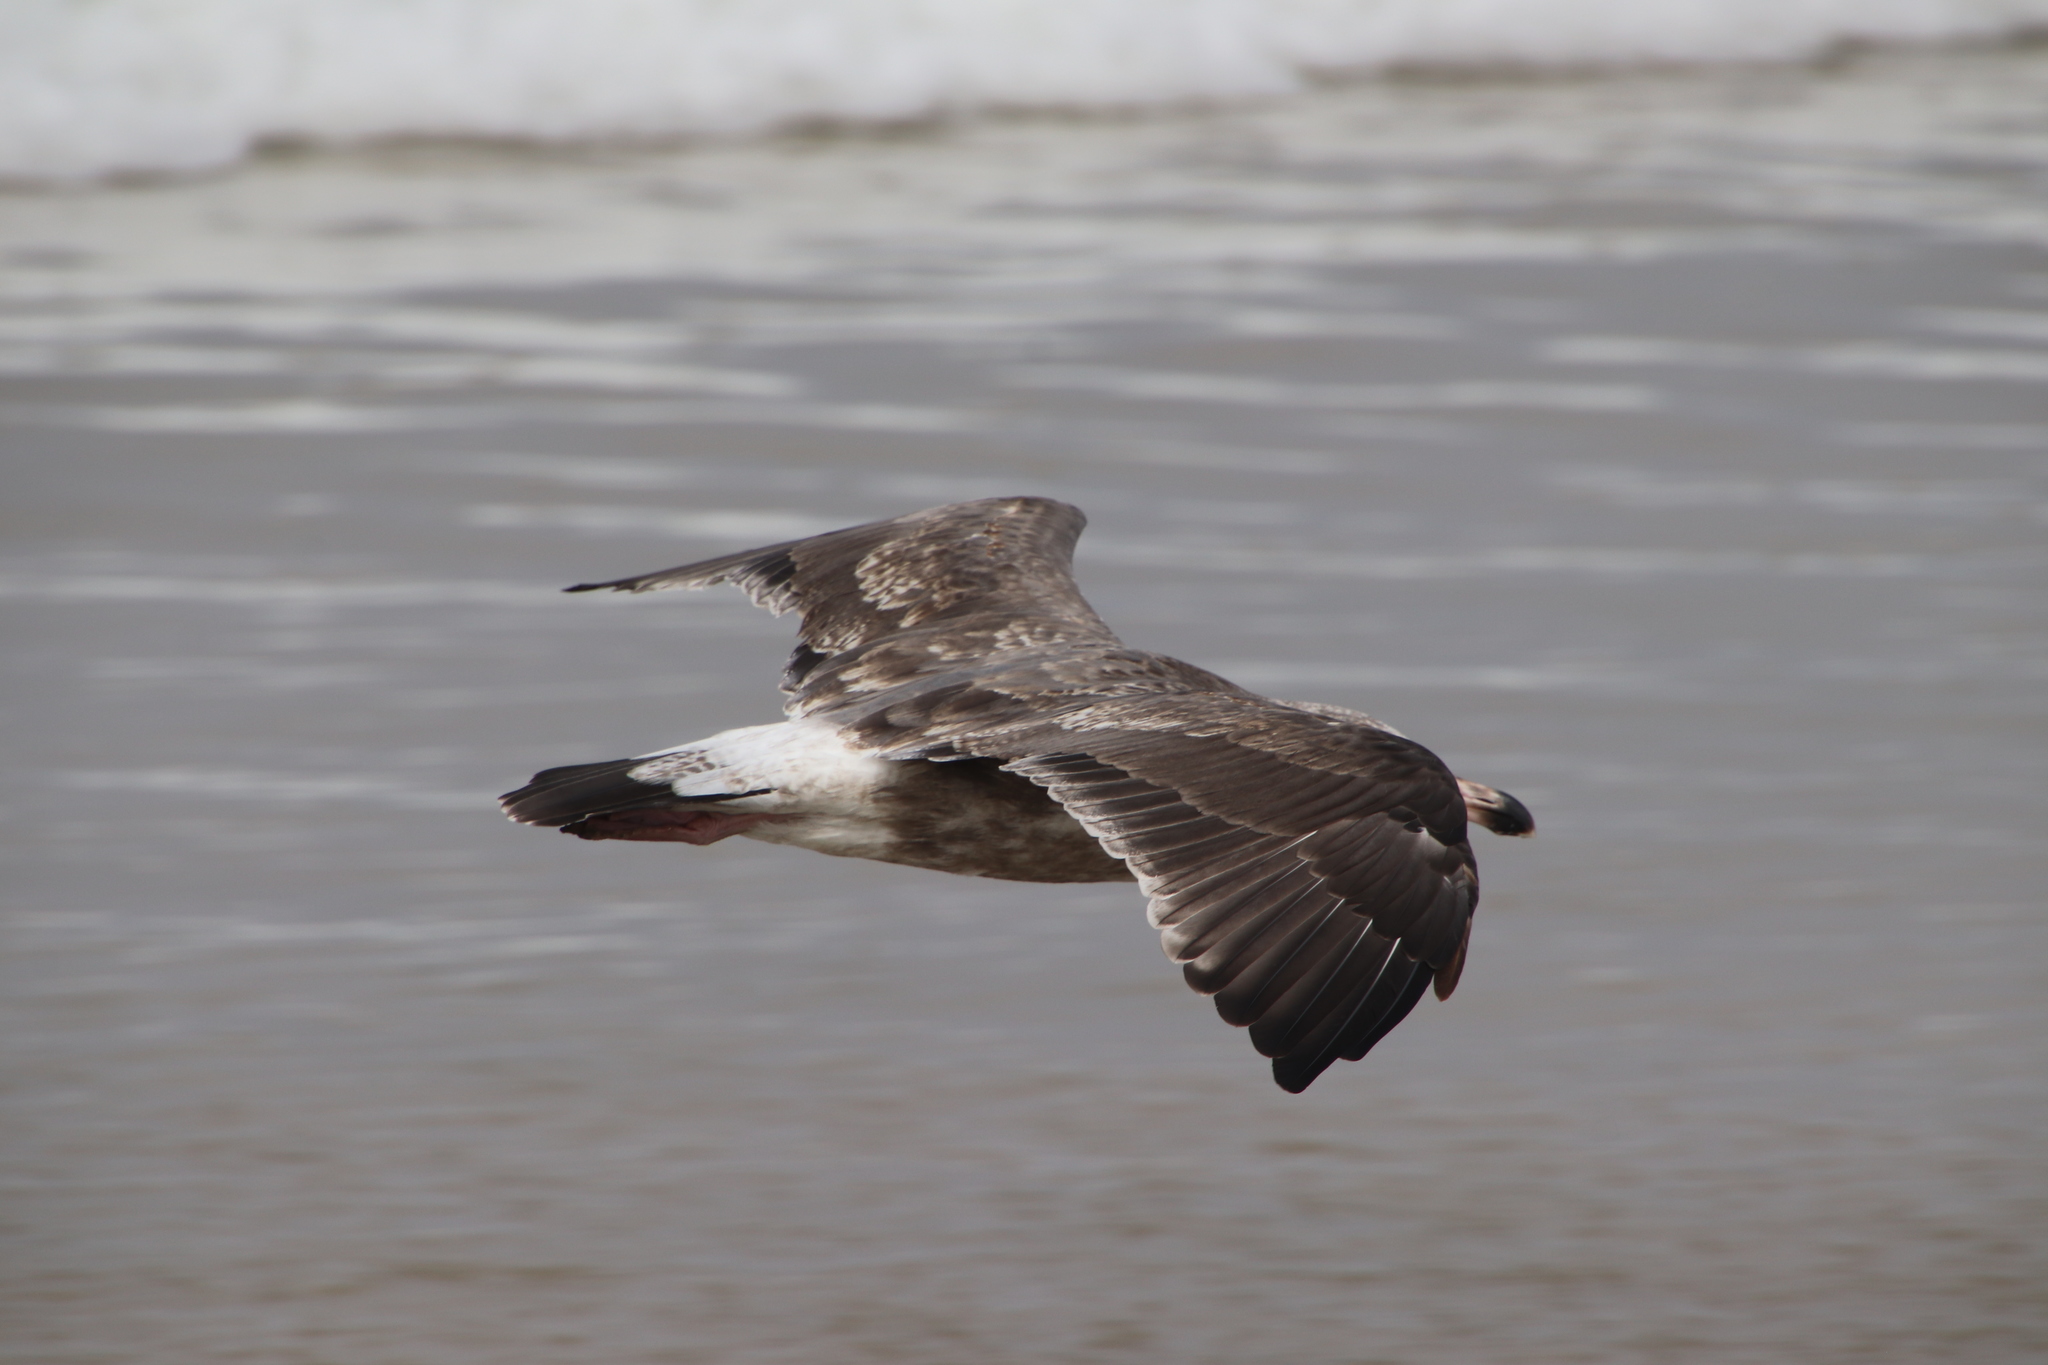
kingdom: Animalia
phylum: Chordata
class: Aves
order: Charadriiformes
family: Laridae
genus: Larus
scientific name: Larus occidentalis
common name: Western gull
